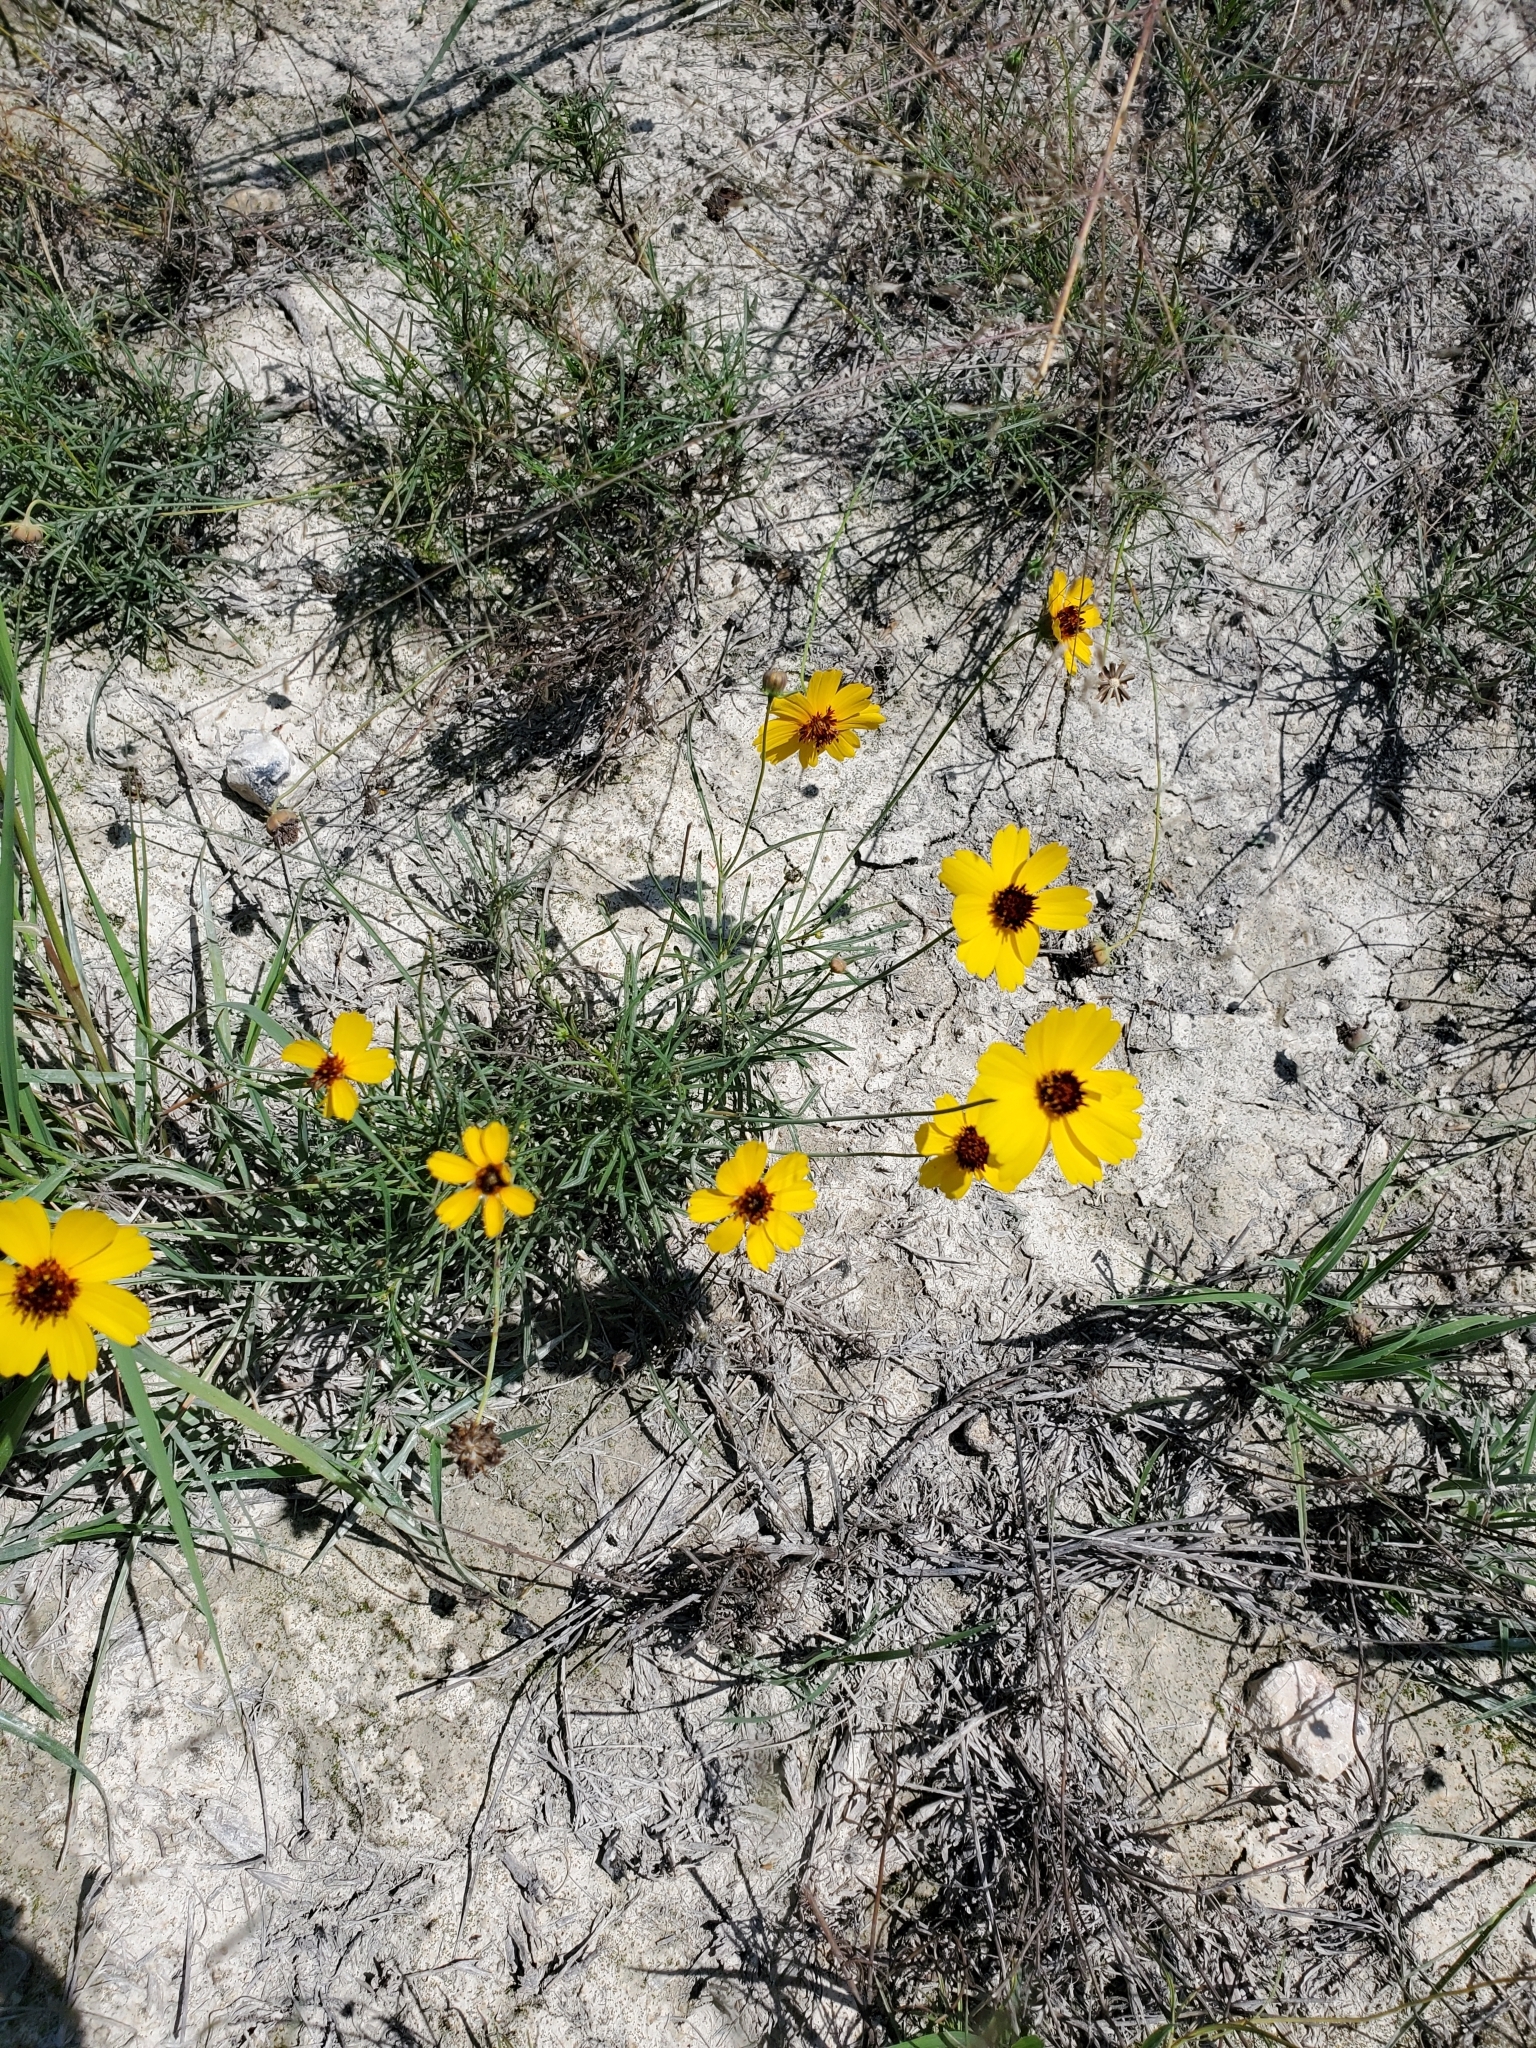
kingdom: Plantae
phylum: Tracheophyta
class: Magnoliopsida
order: Asterales
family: Asteraceae
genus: Thelesperma
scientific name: Thelesperma filifolium
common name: Stiff greenthread
